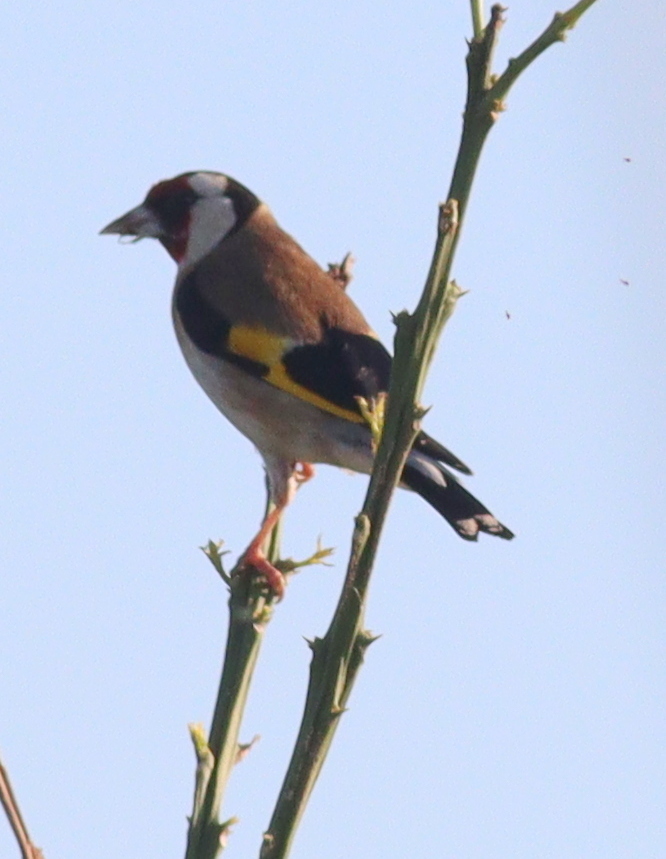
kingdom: Animalia
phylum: Chordata
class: Aves
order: Passeriformes
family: Fringillidae
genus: Carduelis
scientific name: Carduelis carduelis
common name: European goldfinch
